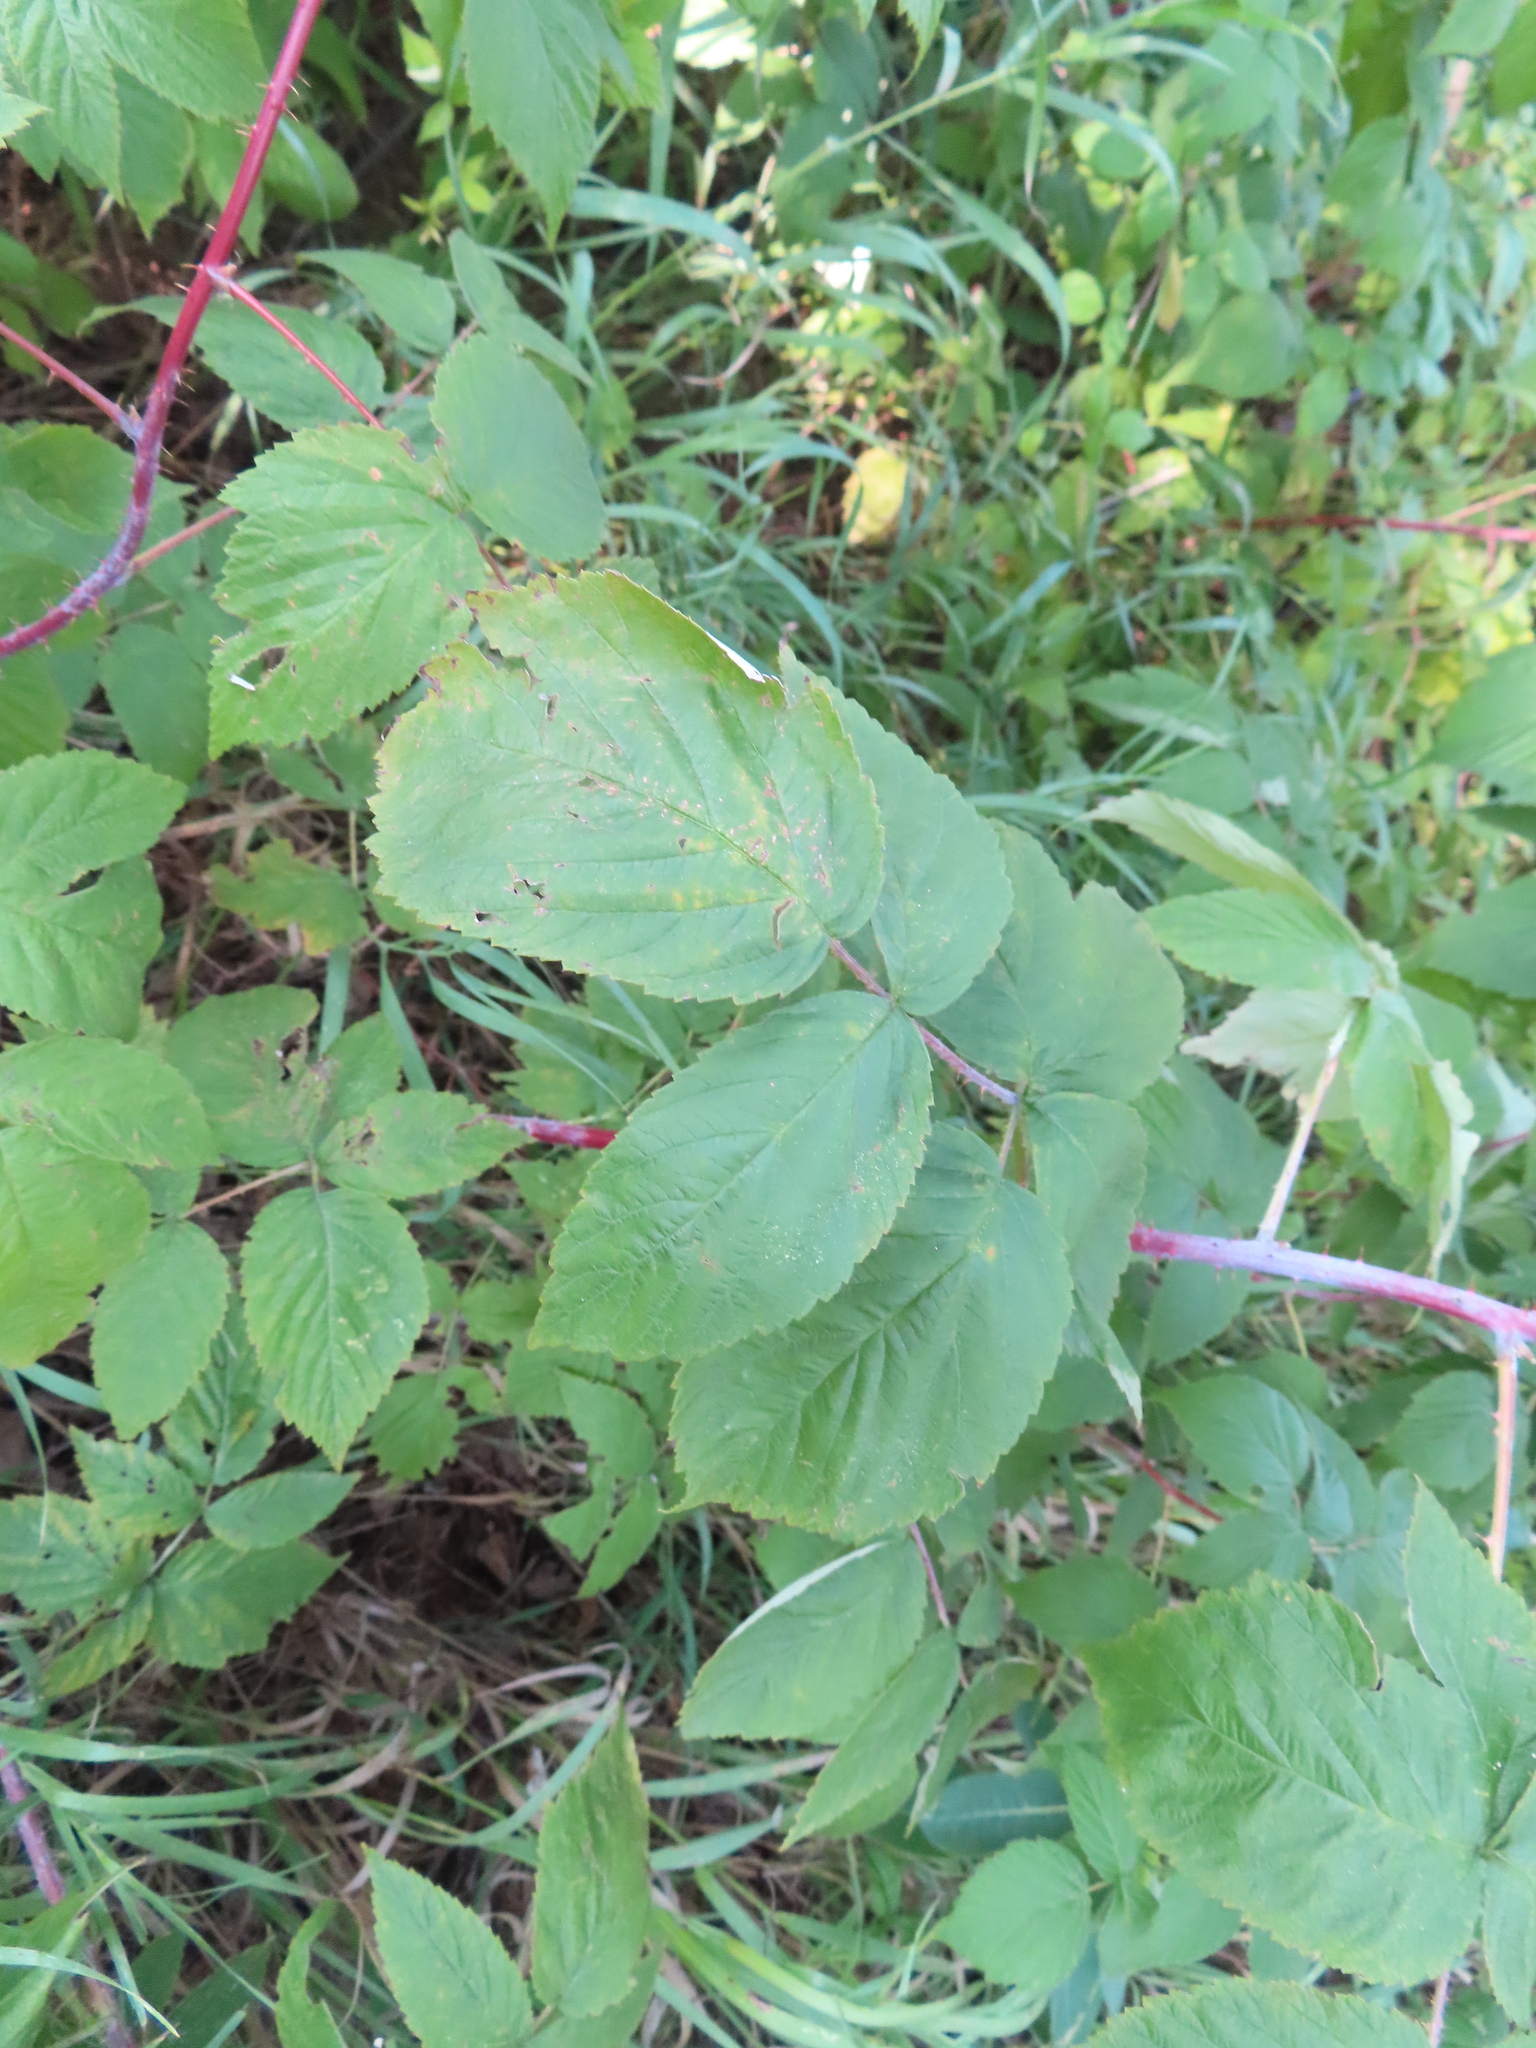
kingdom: Plantae
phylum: Tracheophyta
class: Magnoliopsida
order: Rosales
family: Rosaceae
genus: Rubus
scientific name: Rubus occidentalis
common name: Black raspberry
